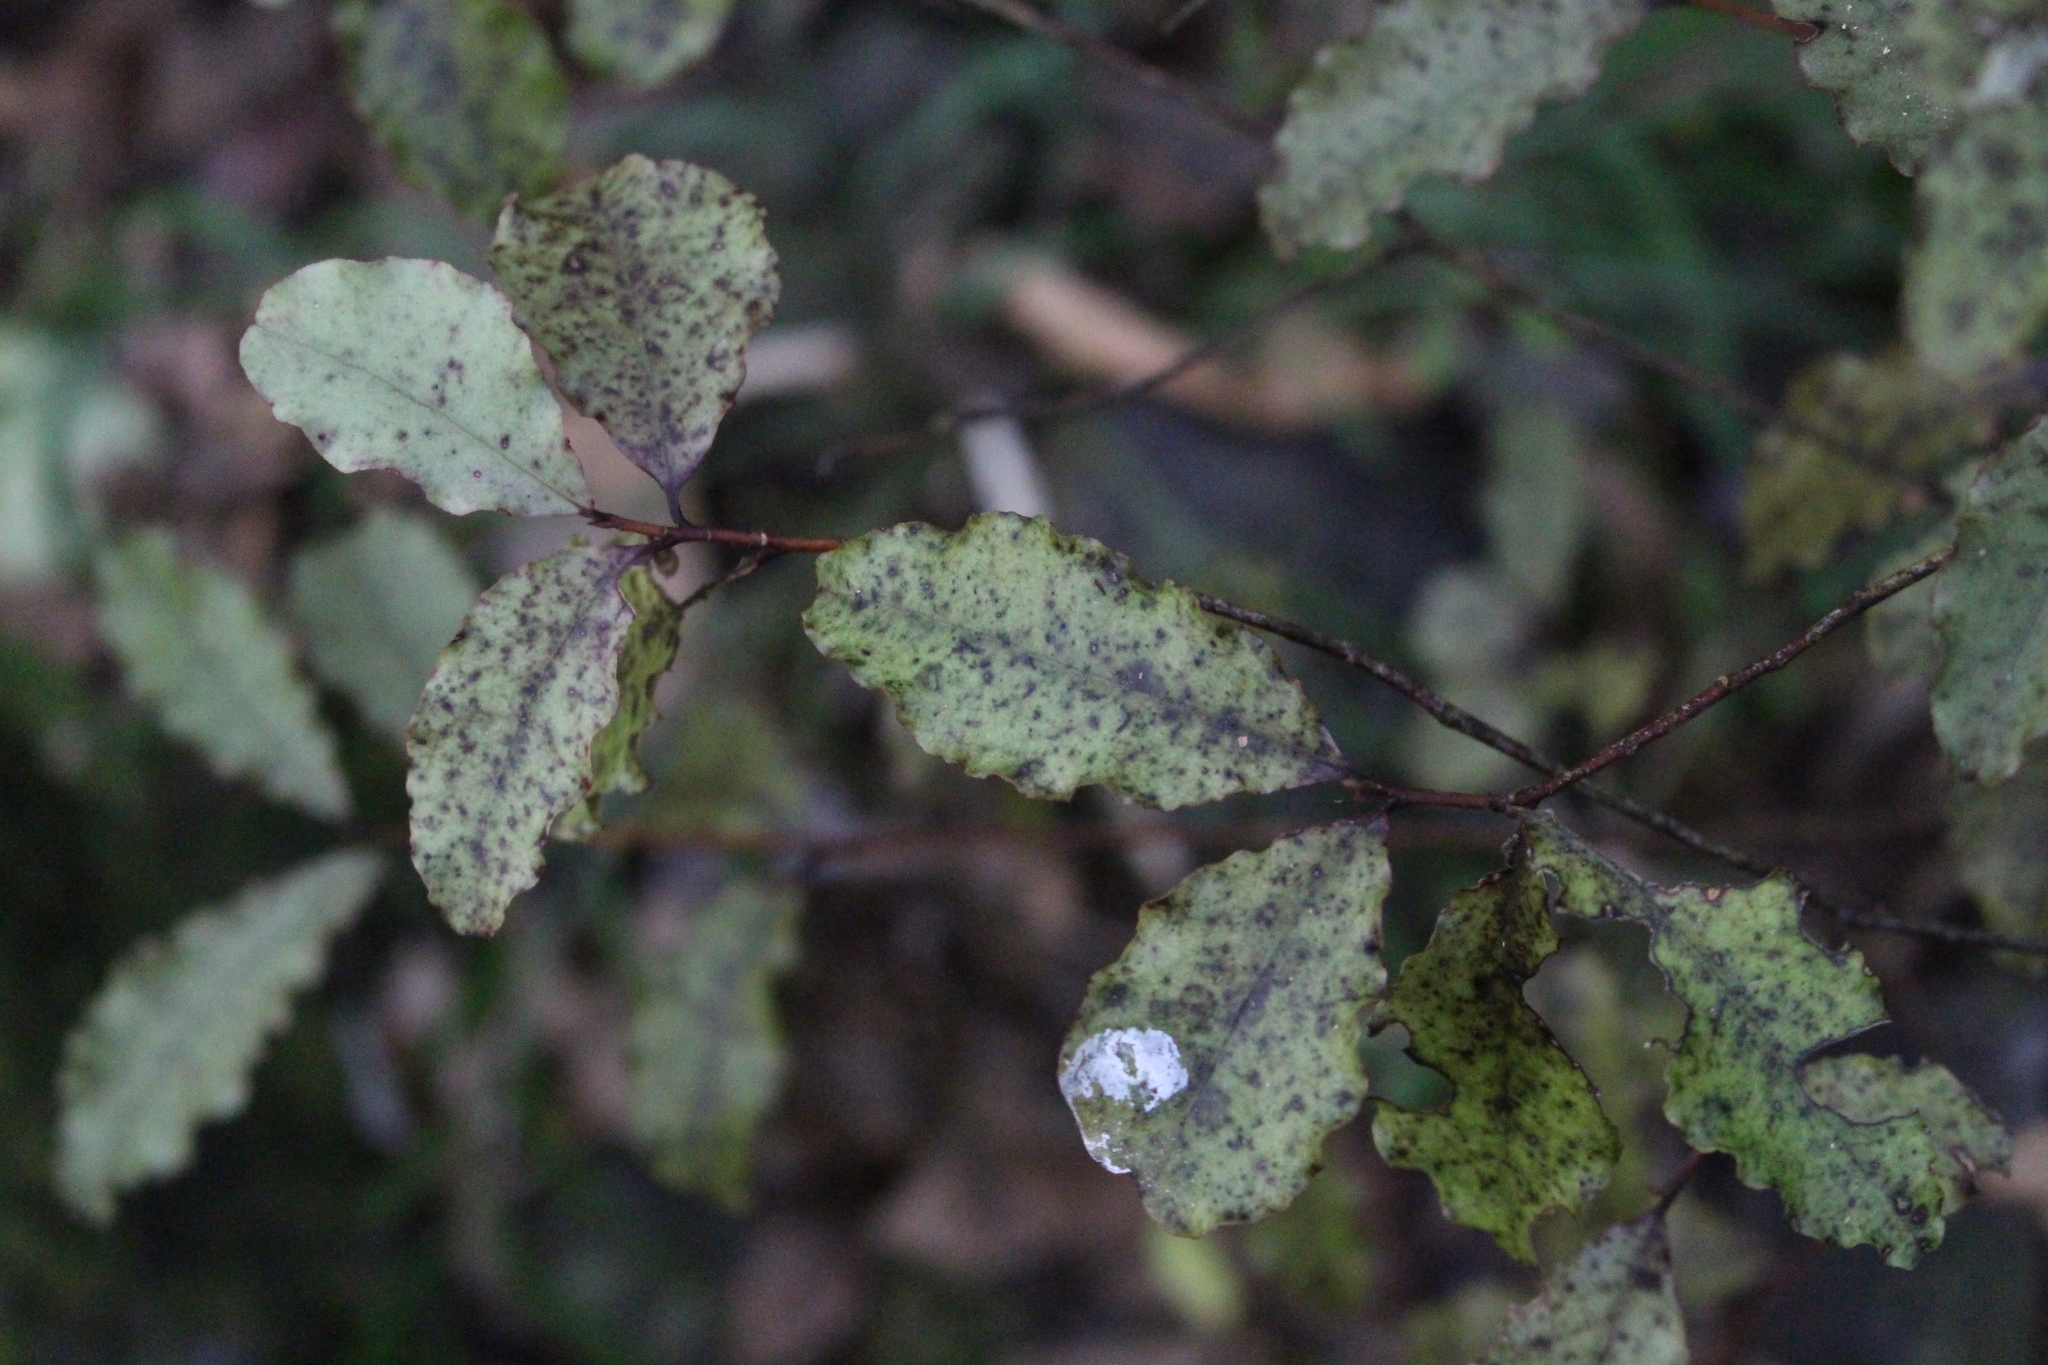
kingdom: Plantae
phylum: Tracheophyta
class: Magnoliopsida
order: Ericales
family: Primulaceae
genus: Myrsine
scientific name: Myrsine australis
